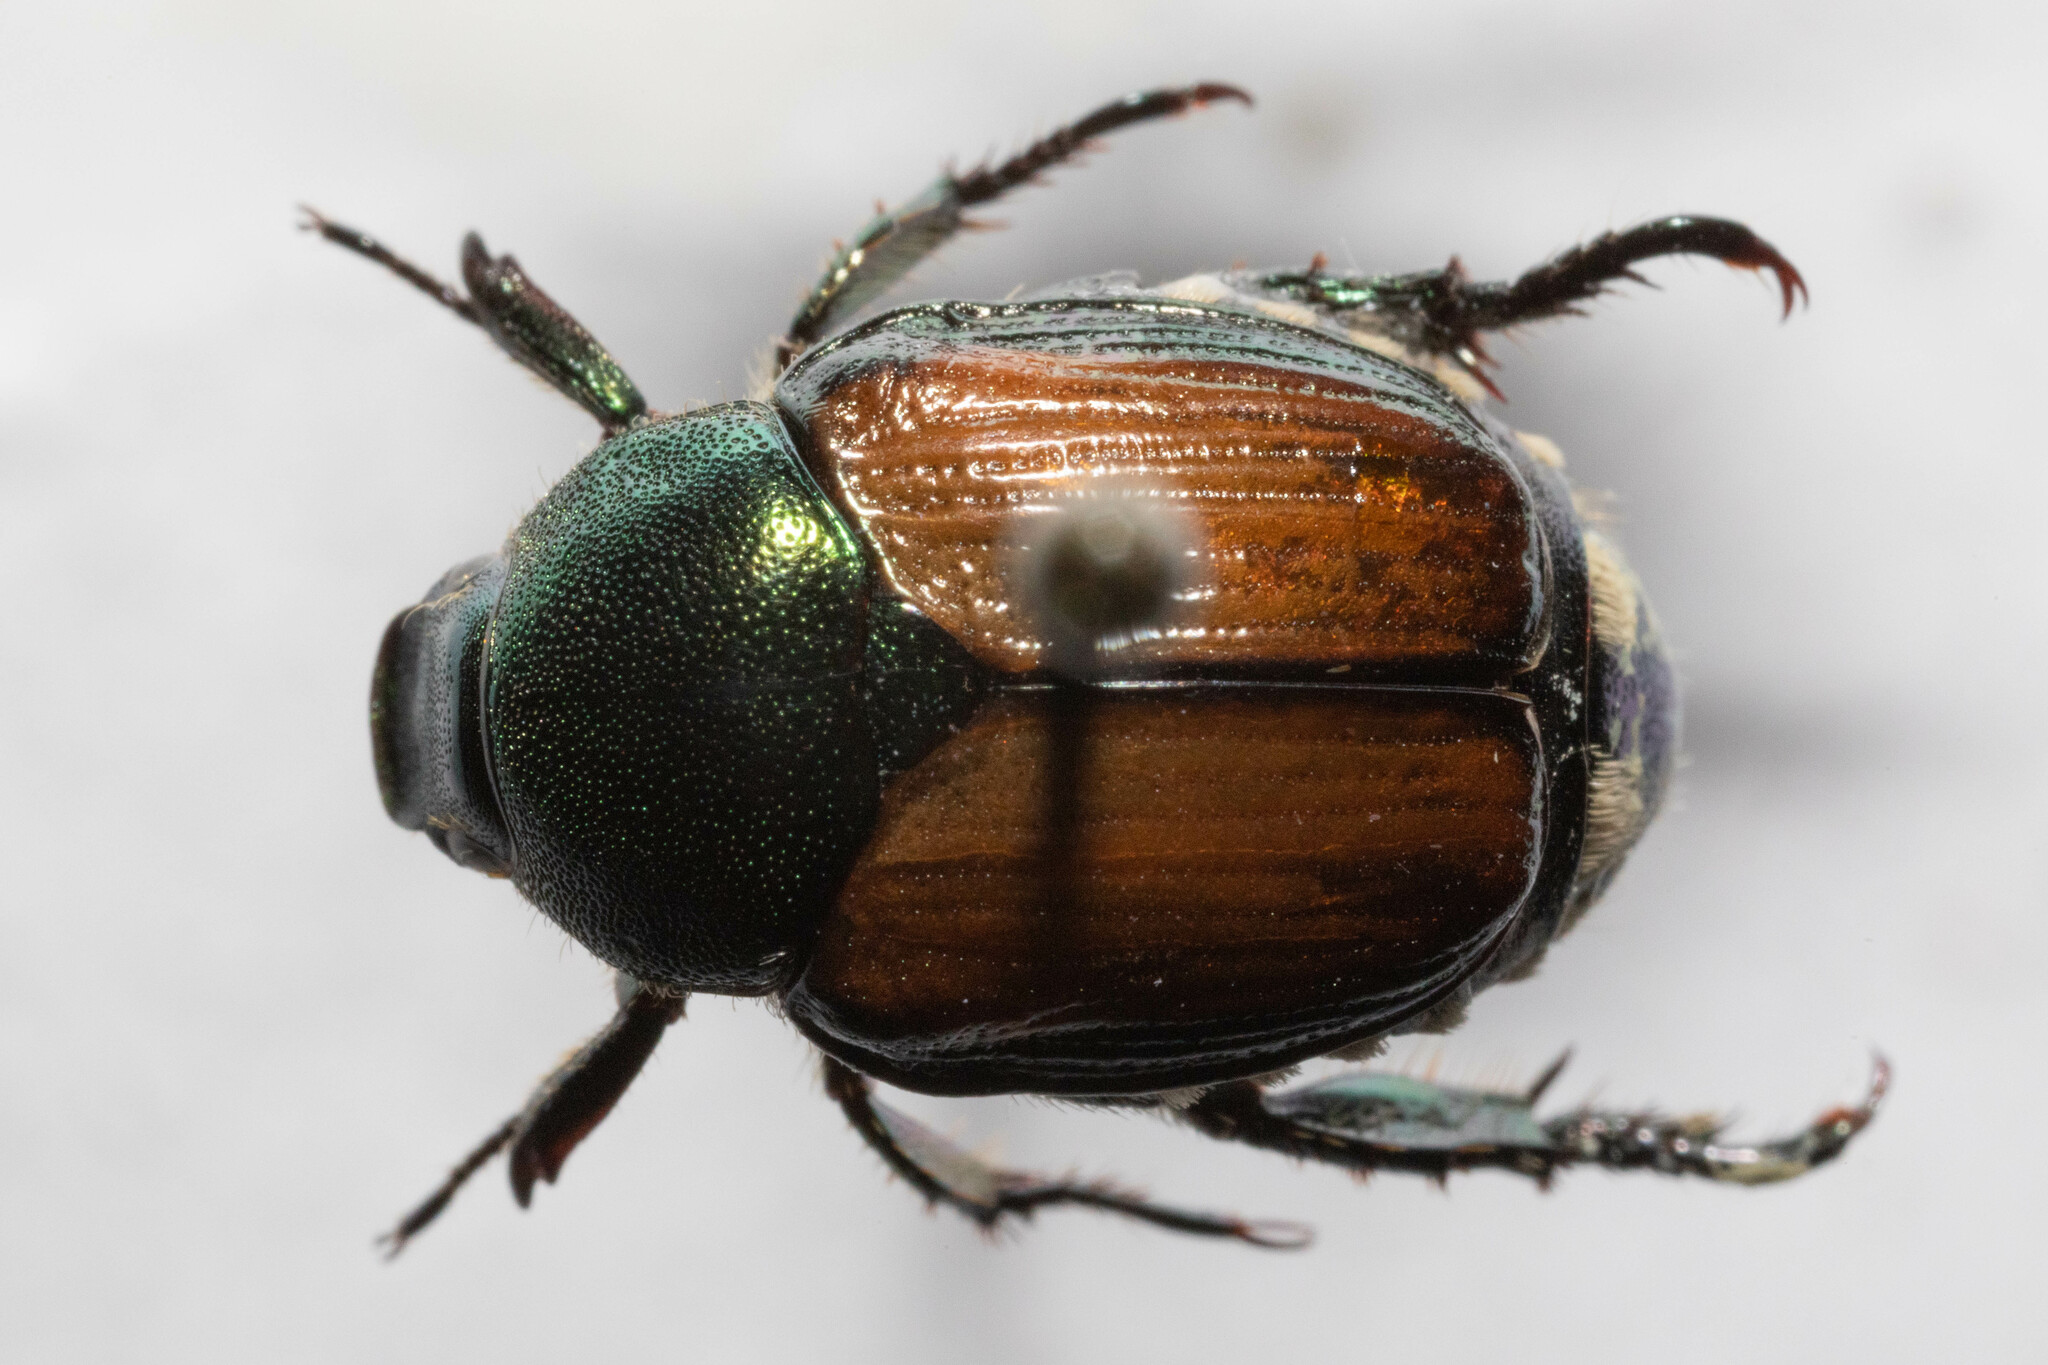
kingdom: Animalia
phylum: Arthropoda
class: Insecta
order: Coleoptera
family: Scarabaeidae
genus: Popillia
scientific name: Popillia japonica
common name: Japanese beetle
